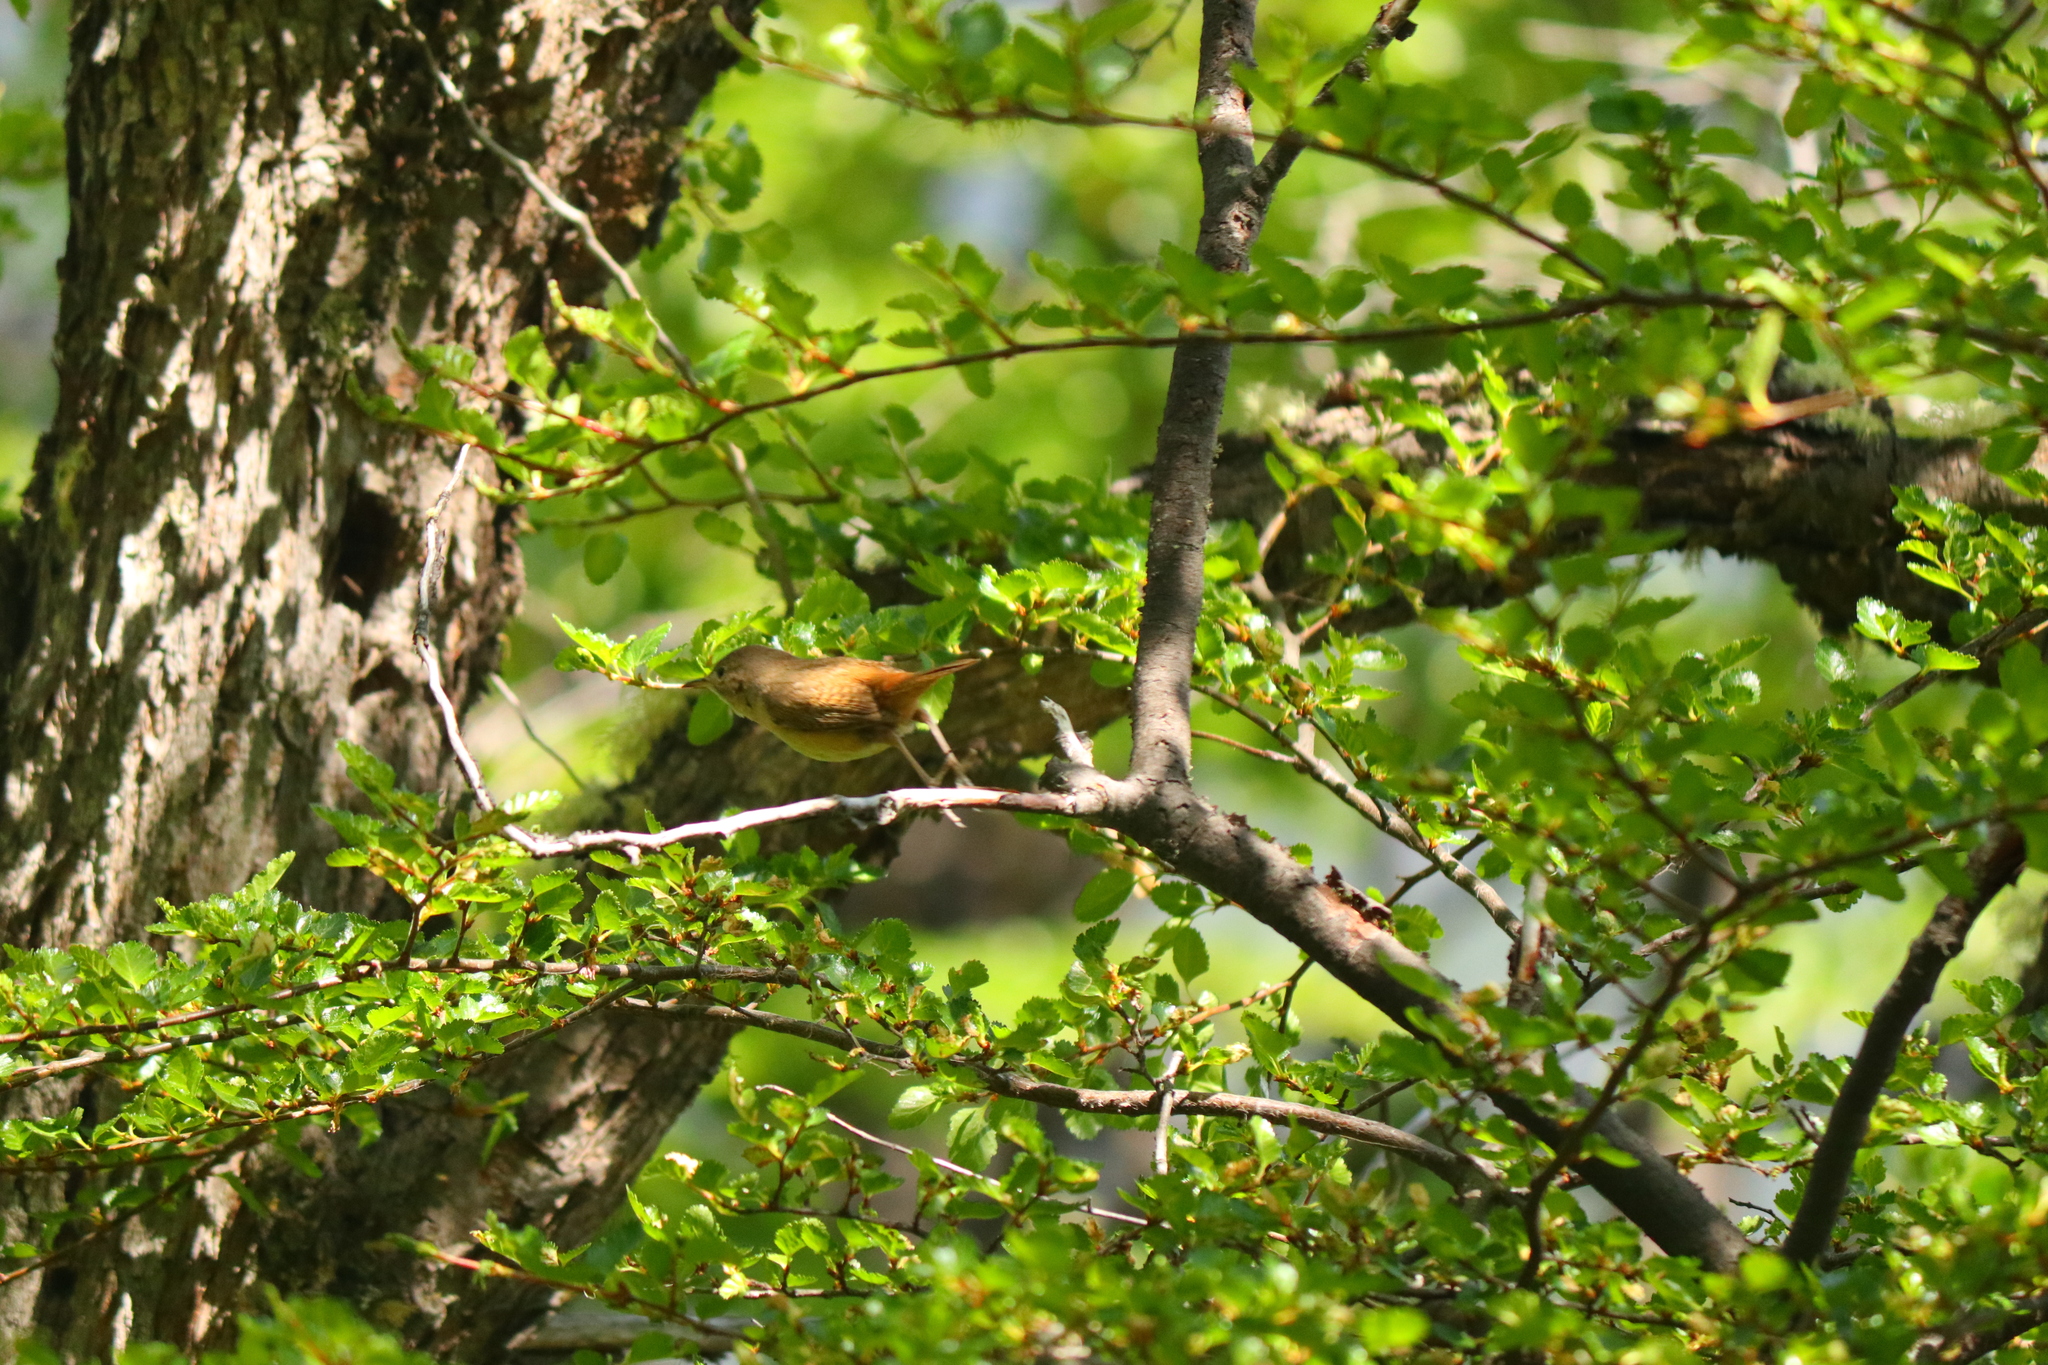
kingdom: Animalia
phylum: Chordata
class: Aves
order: Passeriformes
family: Troglodytidae
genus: Troglodytes
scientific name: Troglodytes aedon
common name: House wren
